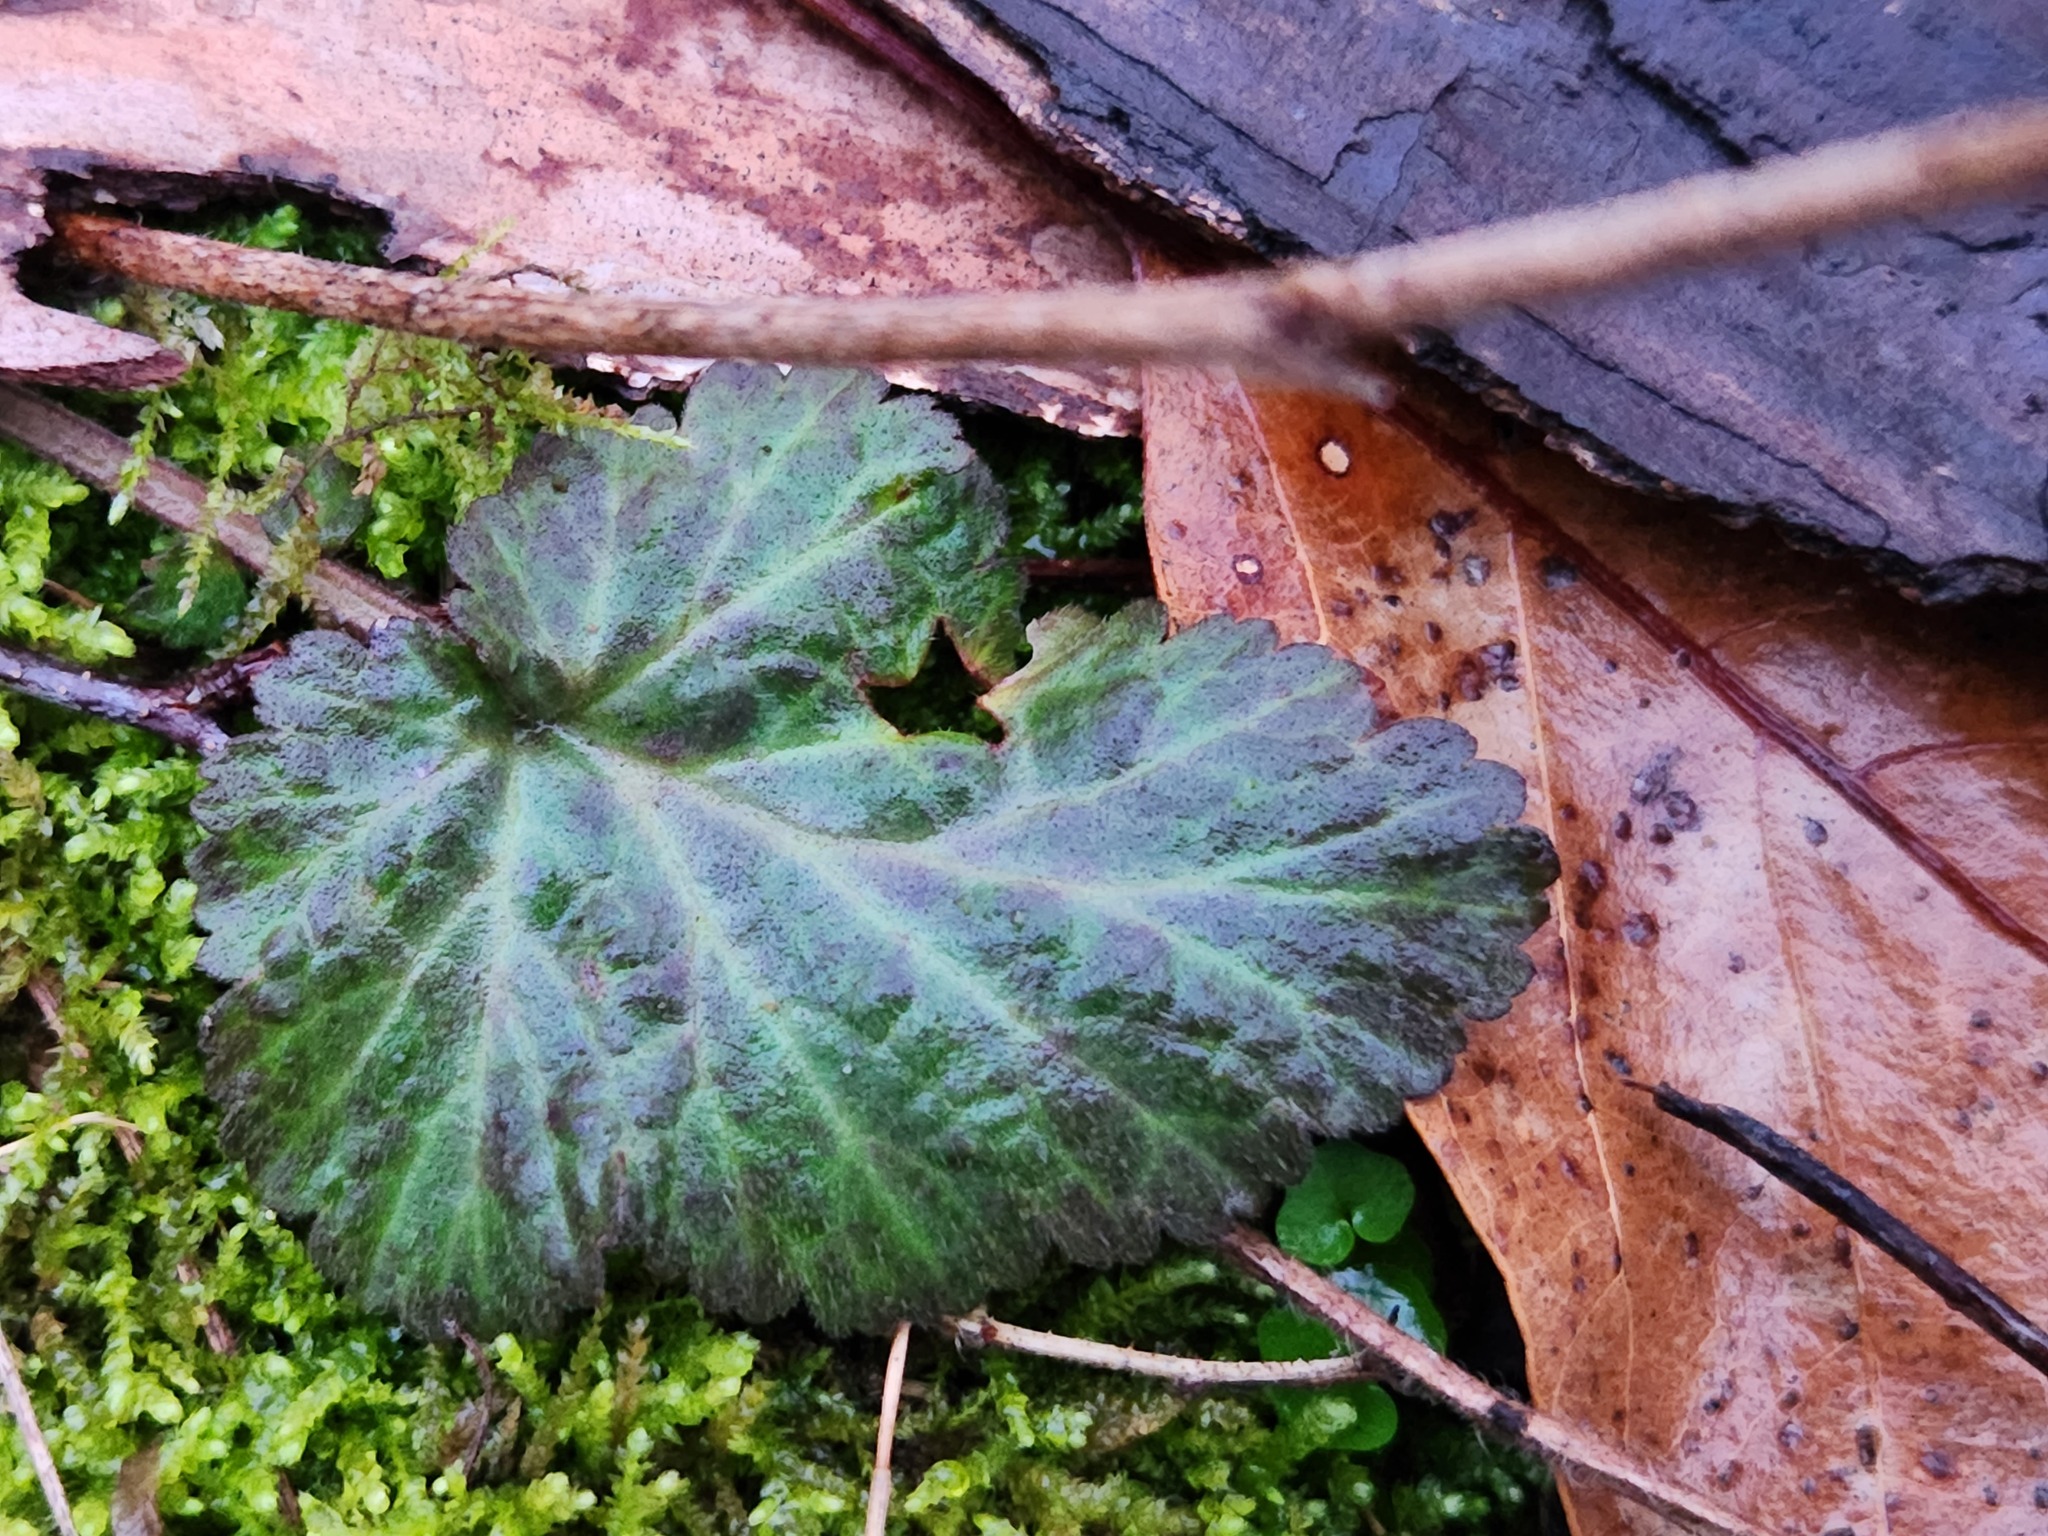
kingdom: Plantae
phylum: Tracheophyta
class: Magnoliopsida
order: Rosales
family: Rosaceae
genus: Geum
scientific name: Geum canadense
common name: White avens
